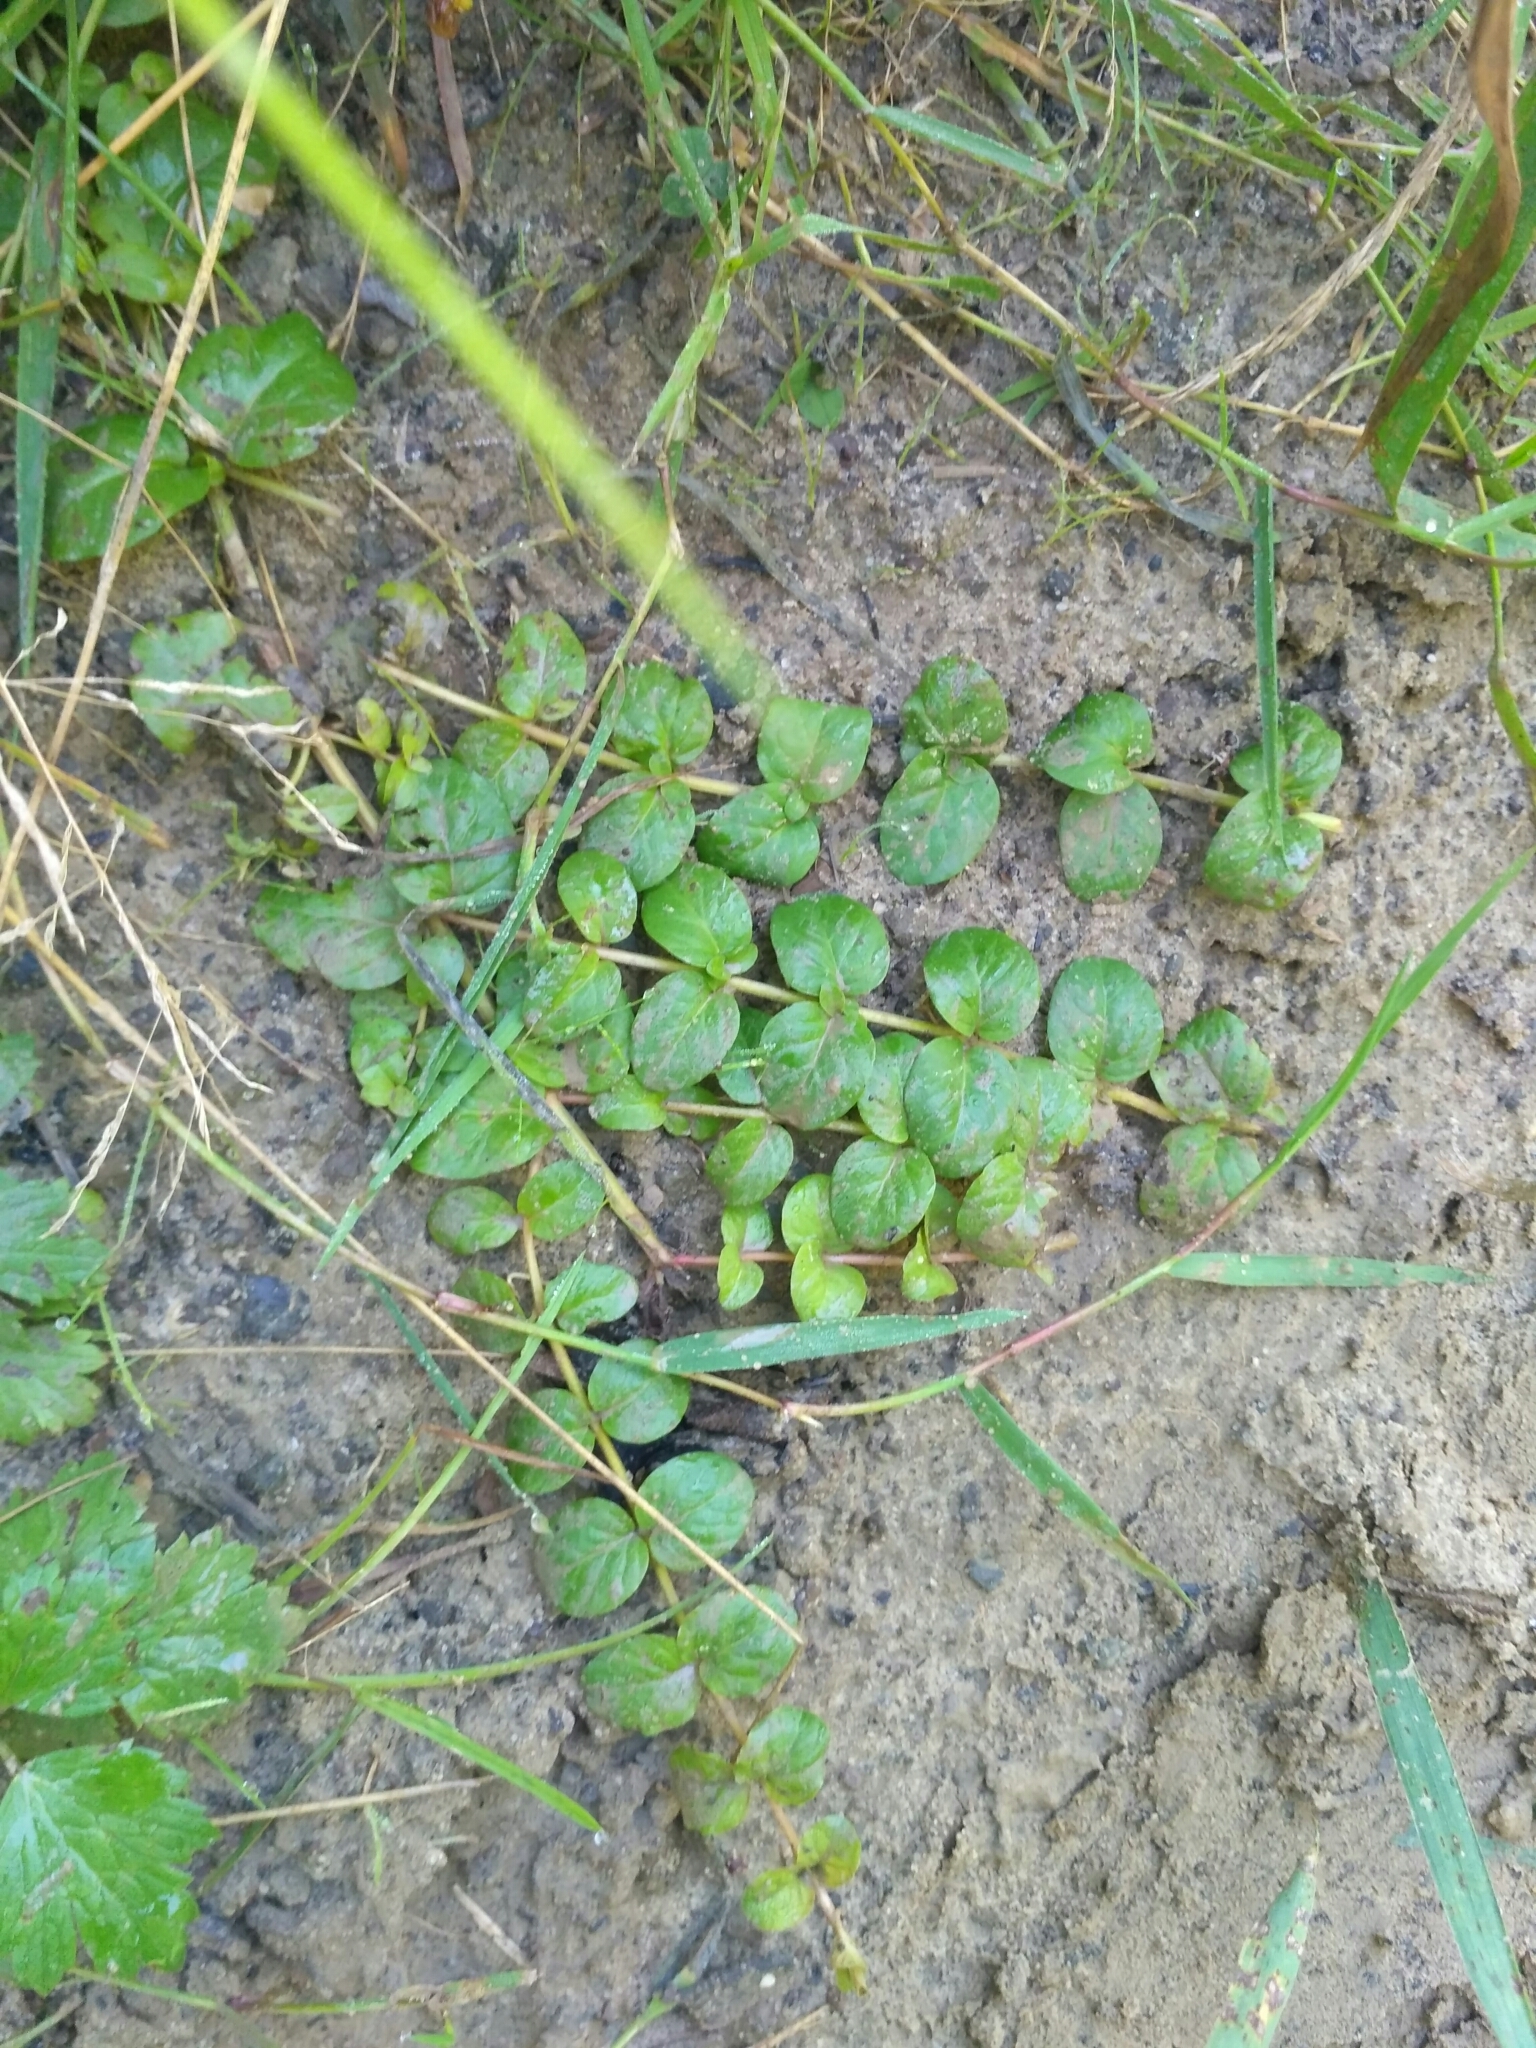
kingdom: Plantae
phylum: Tracheophyta
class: Magnoliopsida
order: Ericales
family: Primulaceae
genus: Lysimachia
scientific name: Lysimachia nummularia
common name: Moneywort
